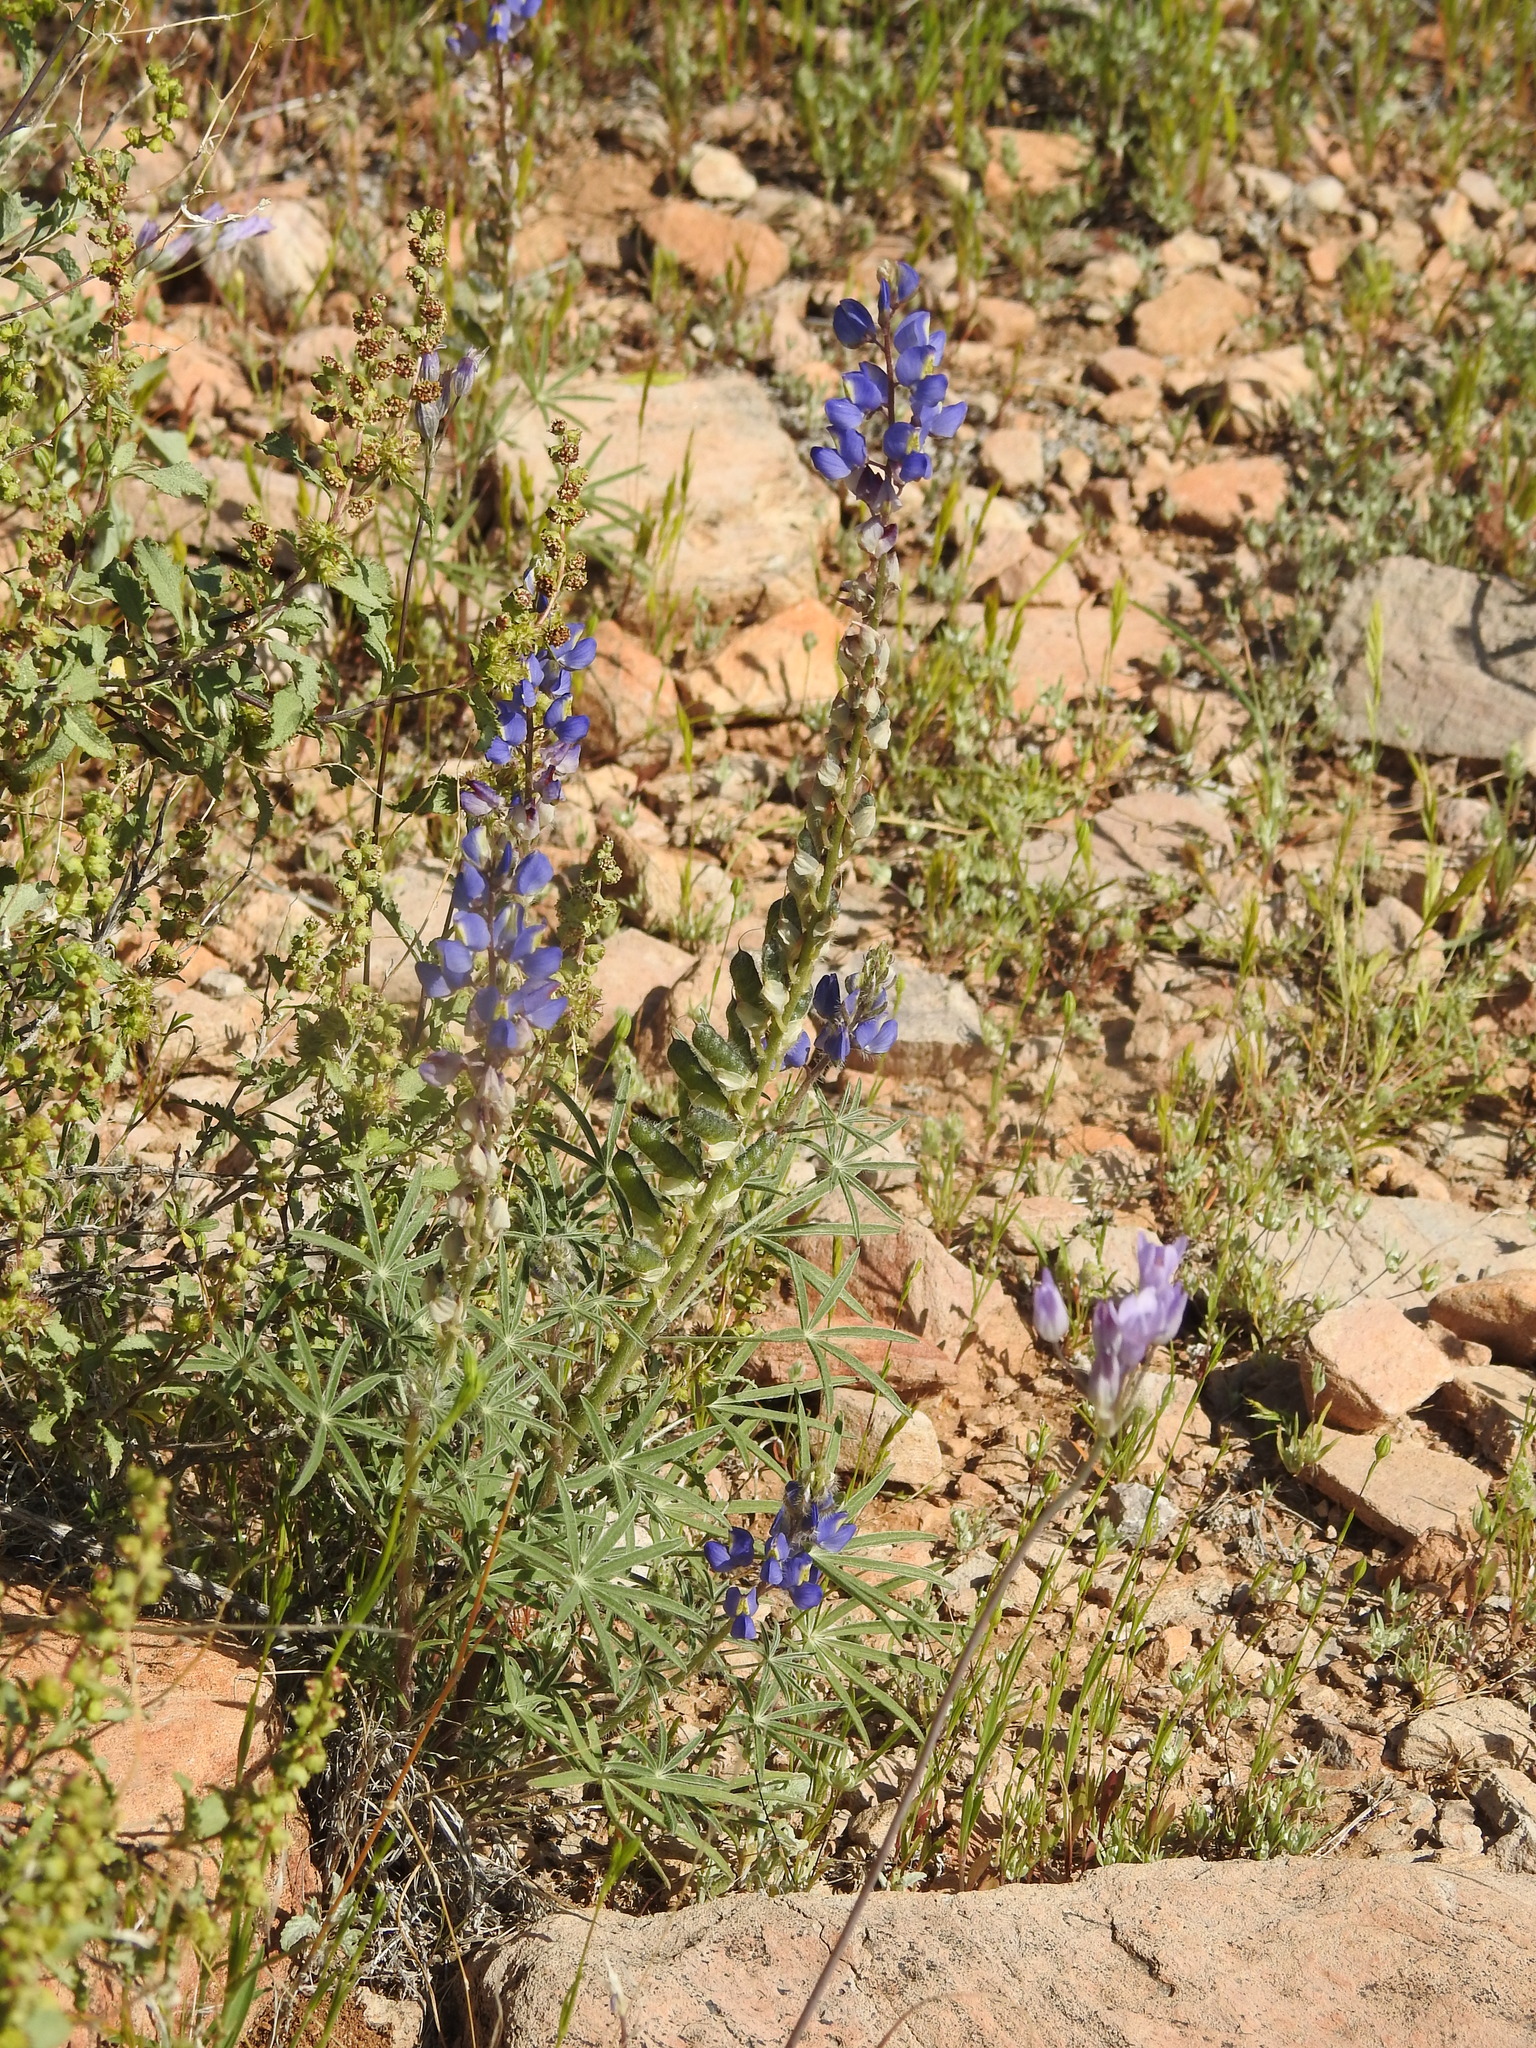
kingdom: Plantae
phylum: Tracheophyta
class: Magnoliopsida
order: Fabales
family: Fabaceae
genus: Lupinus
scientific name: Lupinus sparsiflorus
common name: Coulter's lupine
